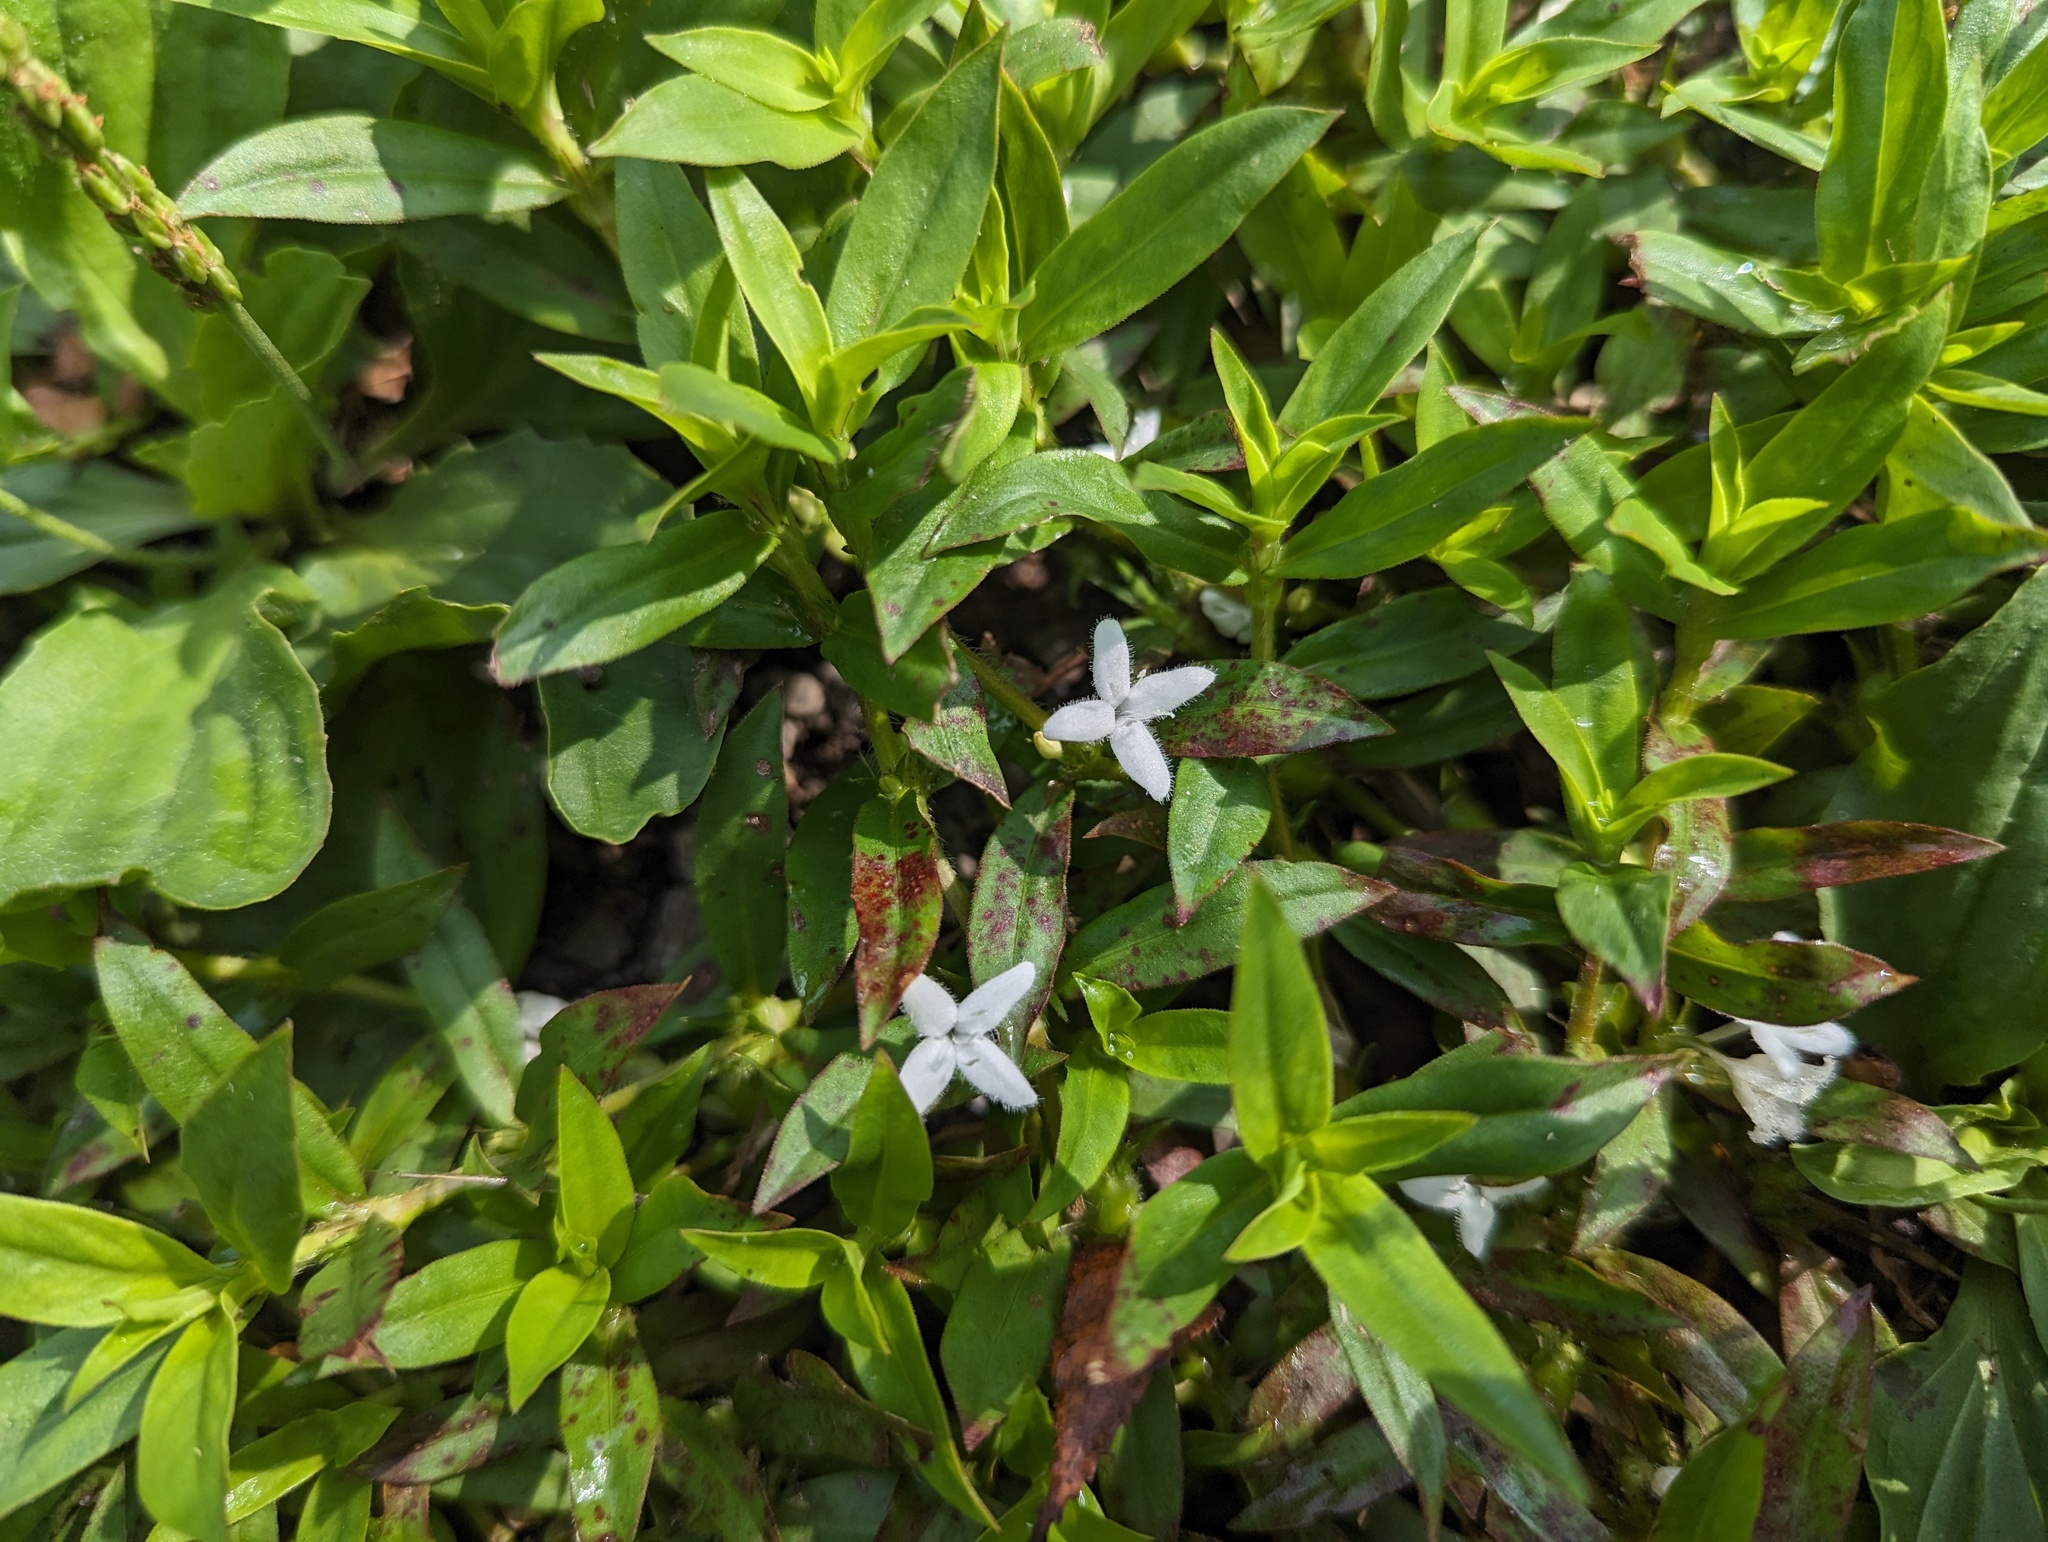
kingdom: Plantae
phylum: Tracheophyta
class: Magnoliopsida
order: Gentianales
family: Rubiaceae
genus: Diodia
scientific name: Diodia virginiana
